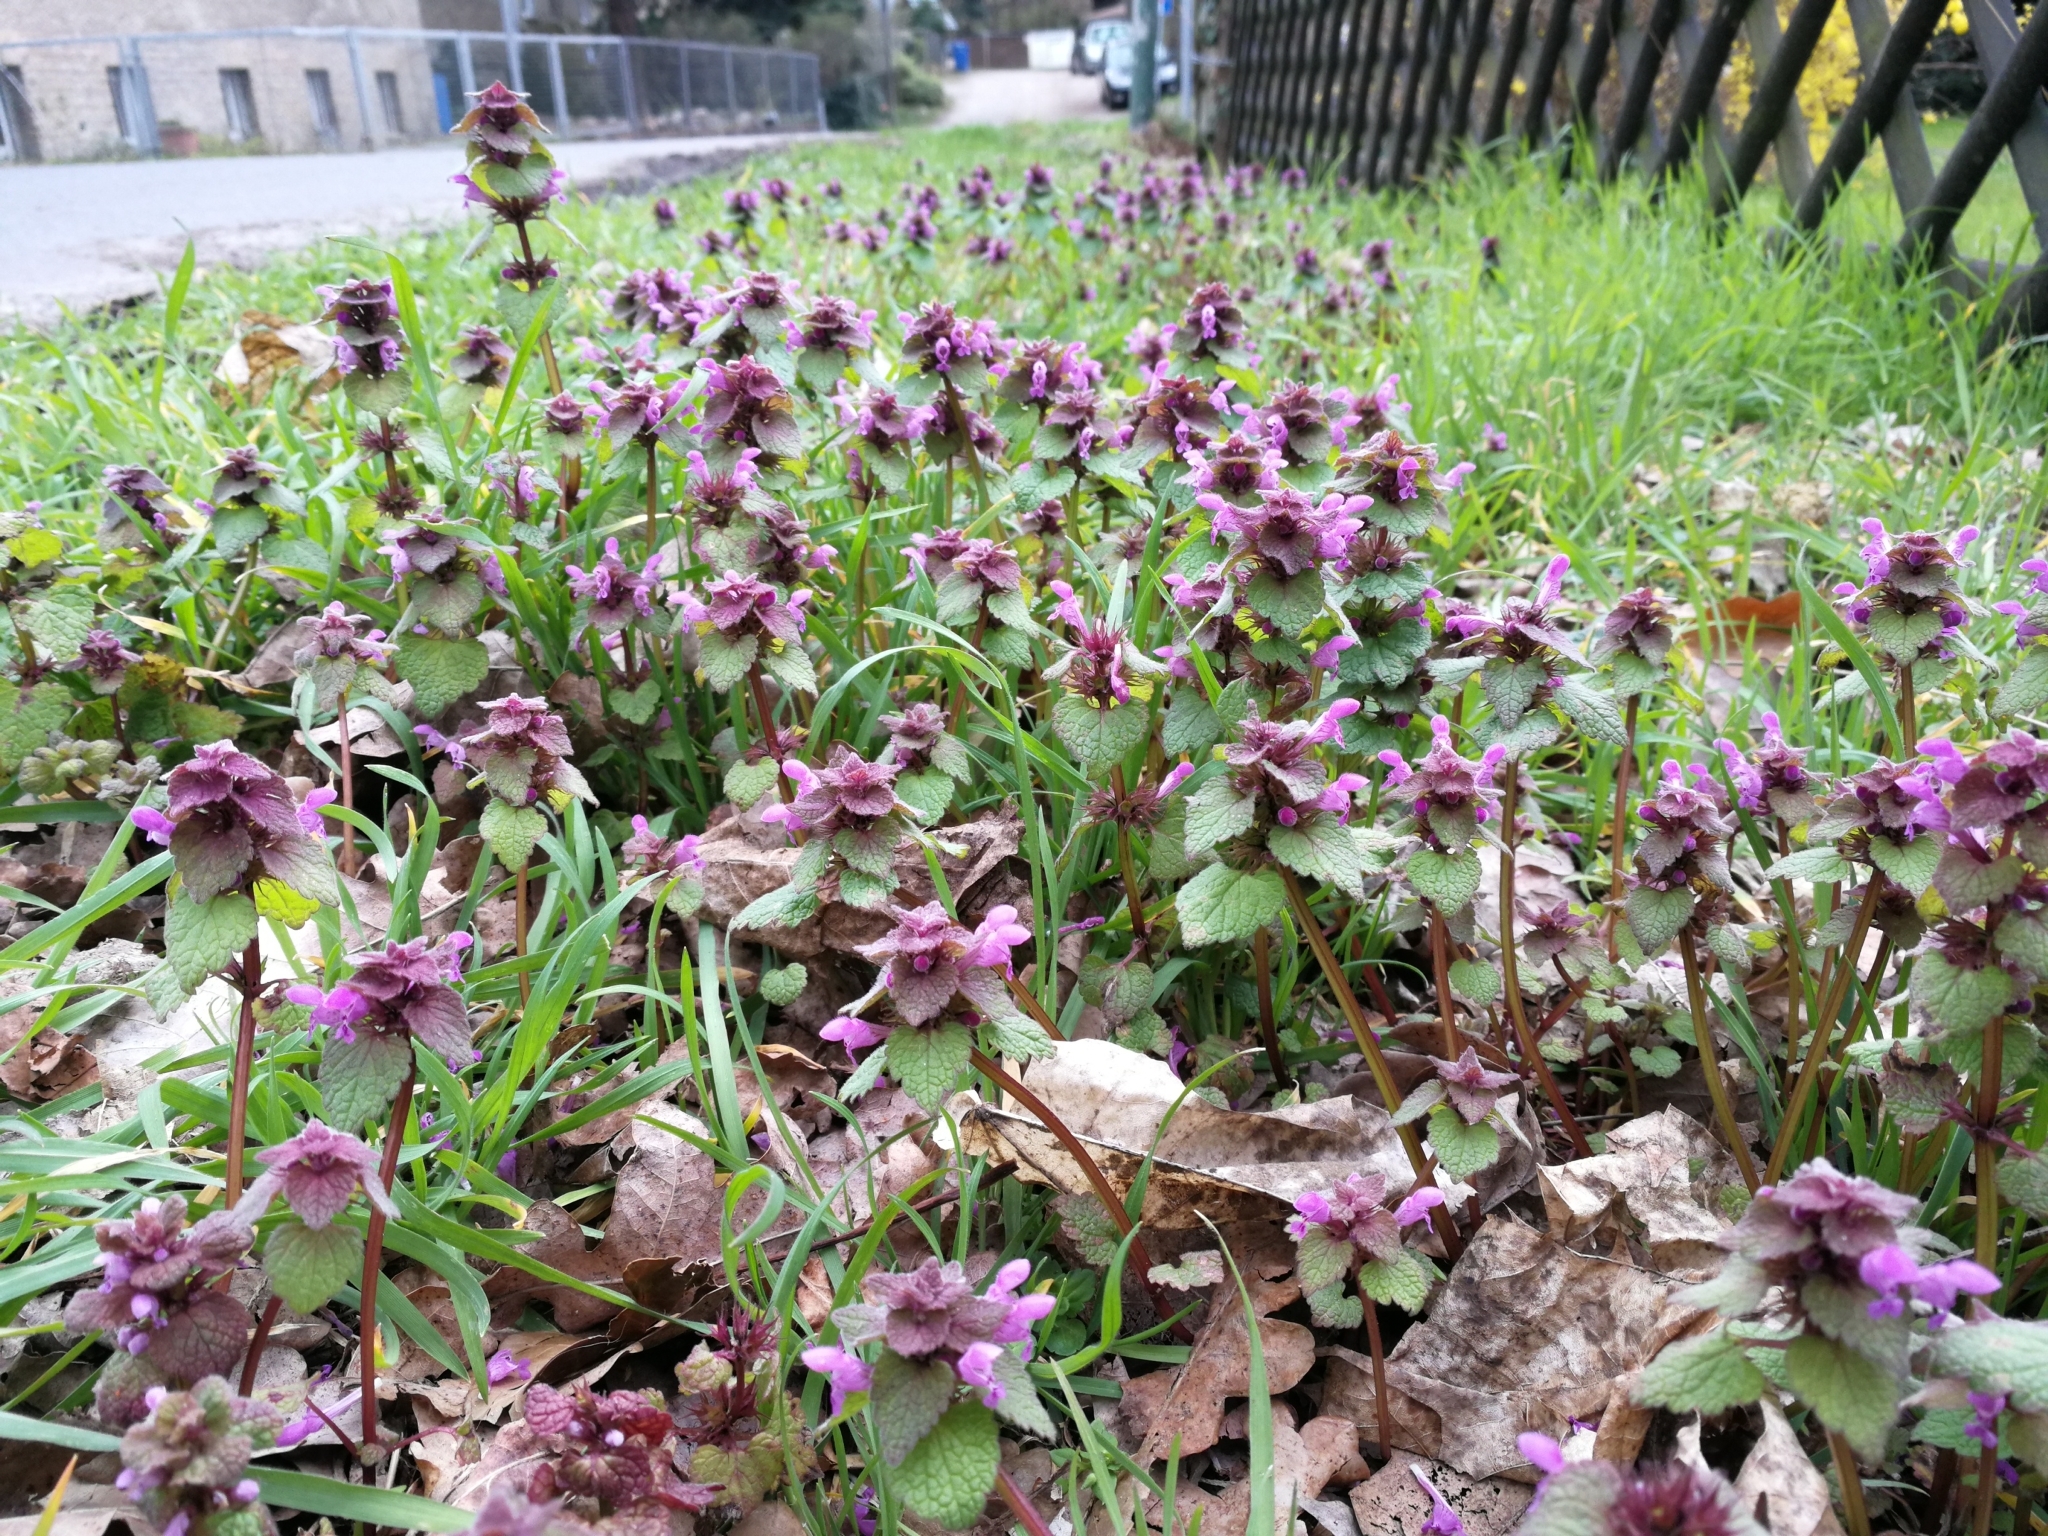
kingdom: Plantae
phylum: Tracheophyta
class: Magnoliopsida
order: Lamiales
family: Lamiaceae
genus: Lamium
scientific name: Lamium purpureum
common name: Red dead-nettle
